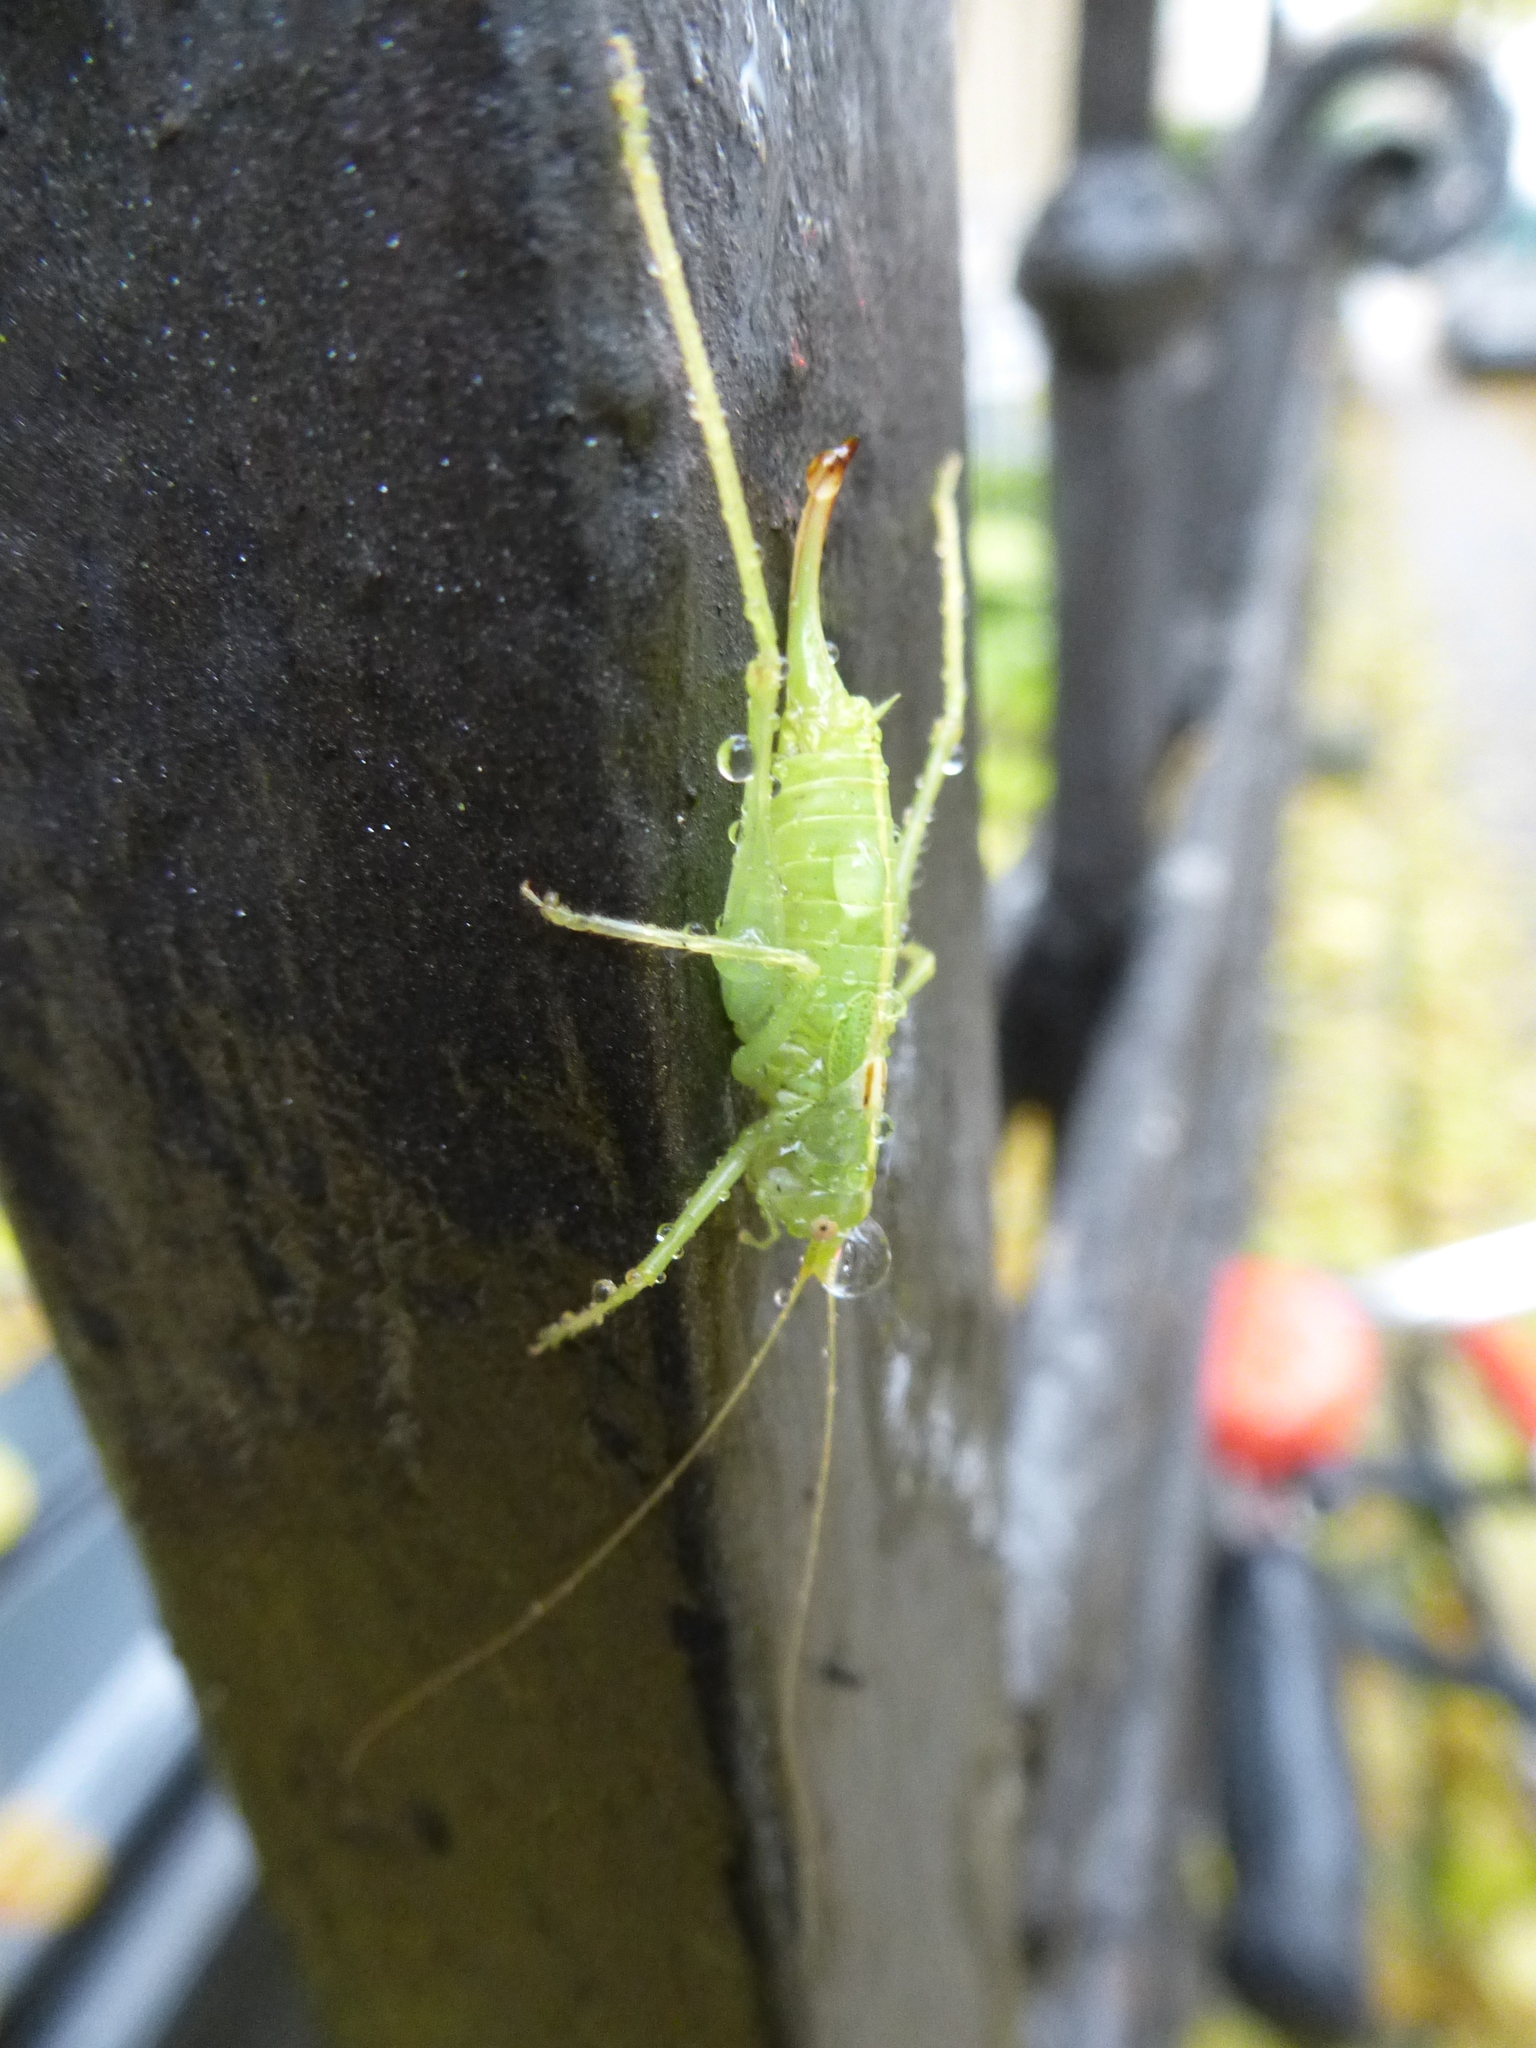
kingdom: Animalia
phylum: Arthropoda
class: Insecta
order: Orthoptera
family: Tettigoniidae
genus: Meconema
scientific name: Meconema meridionale
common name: Southern oak bush-cricket
